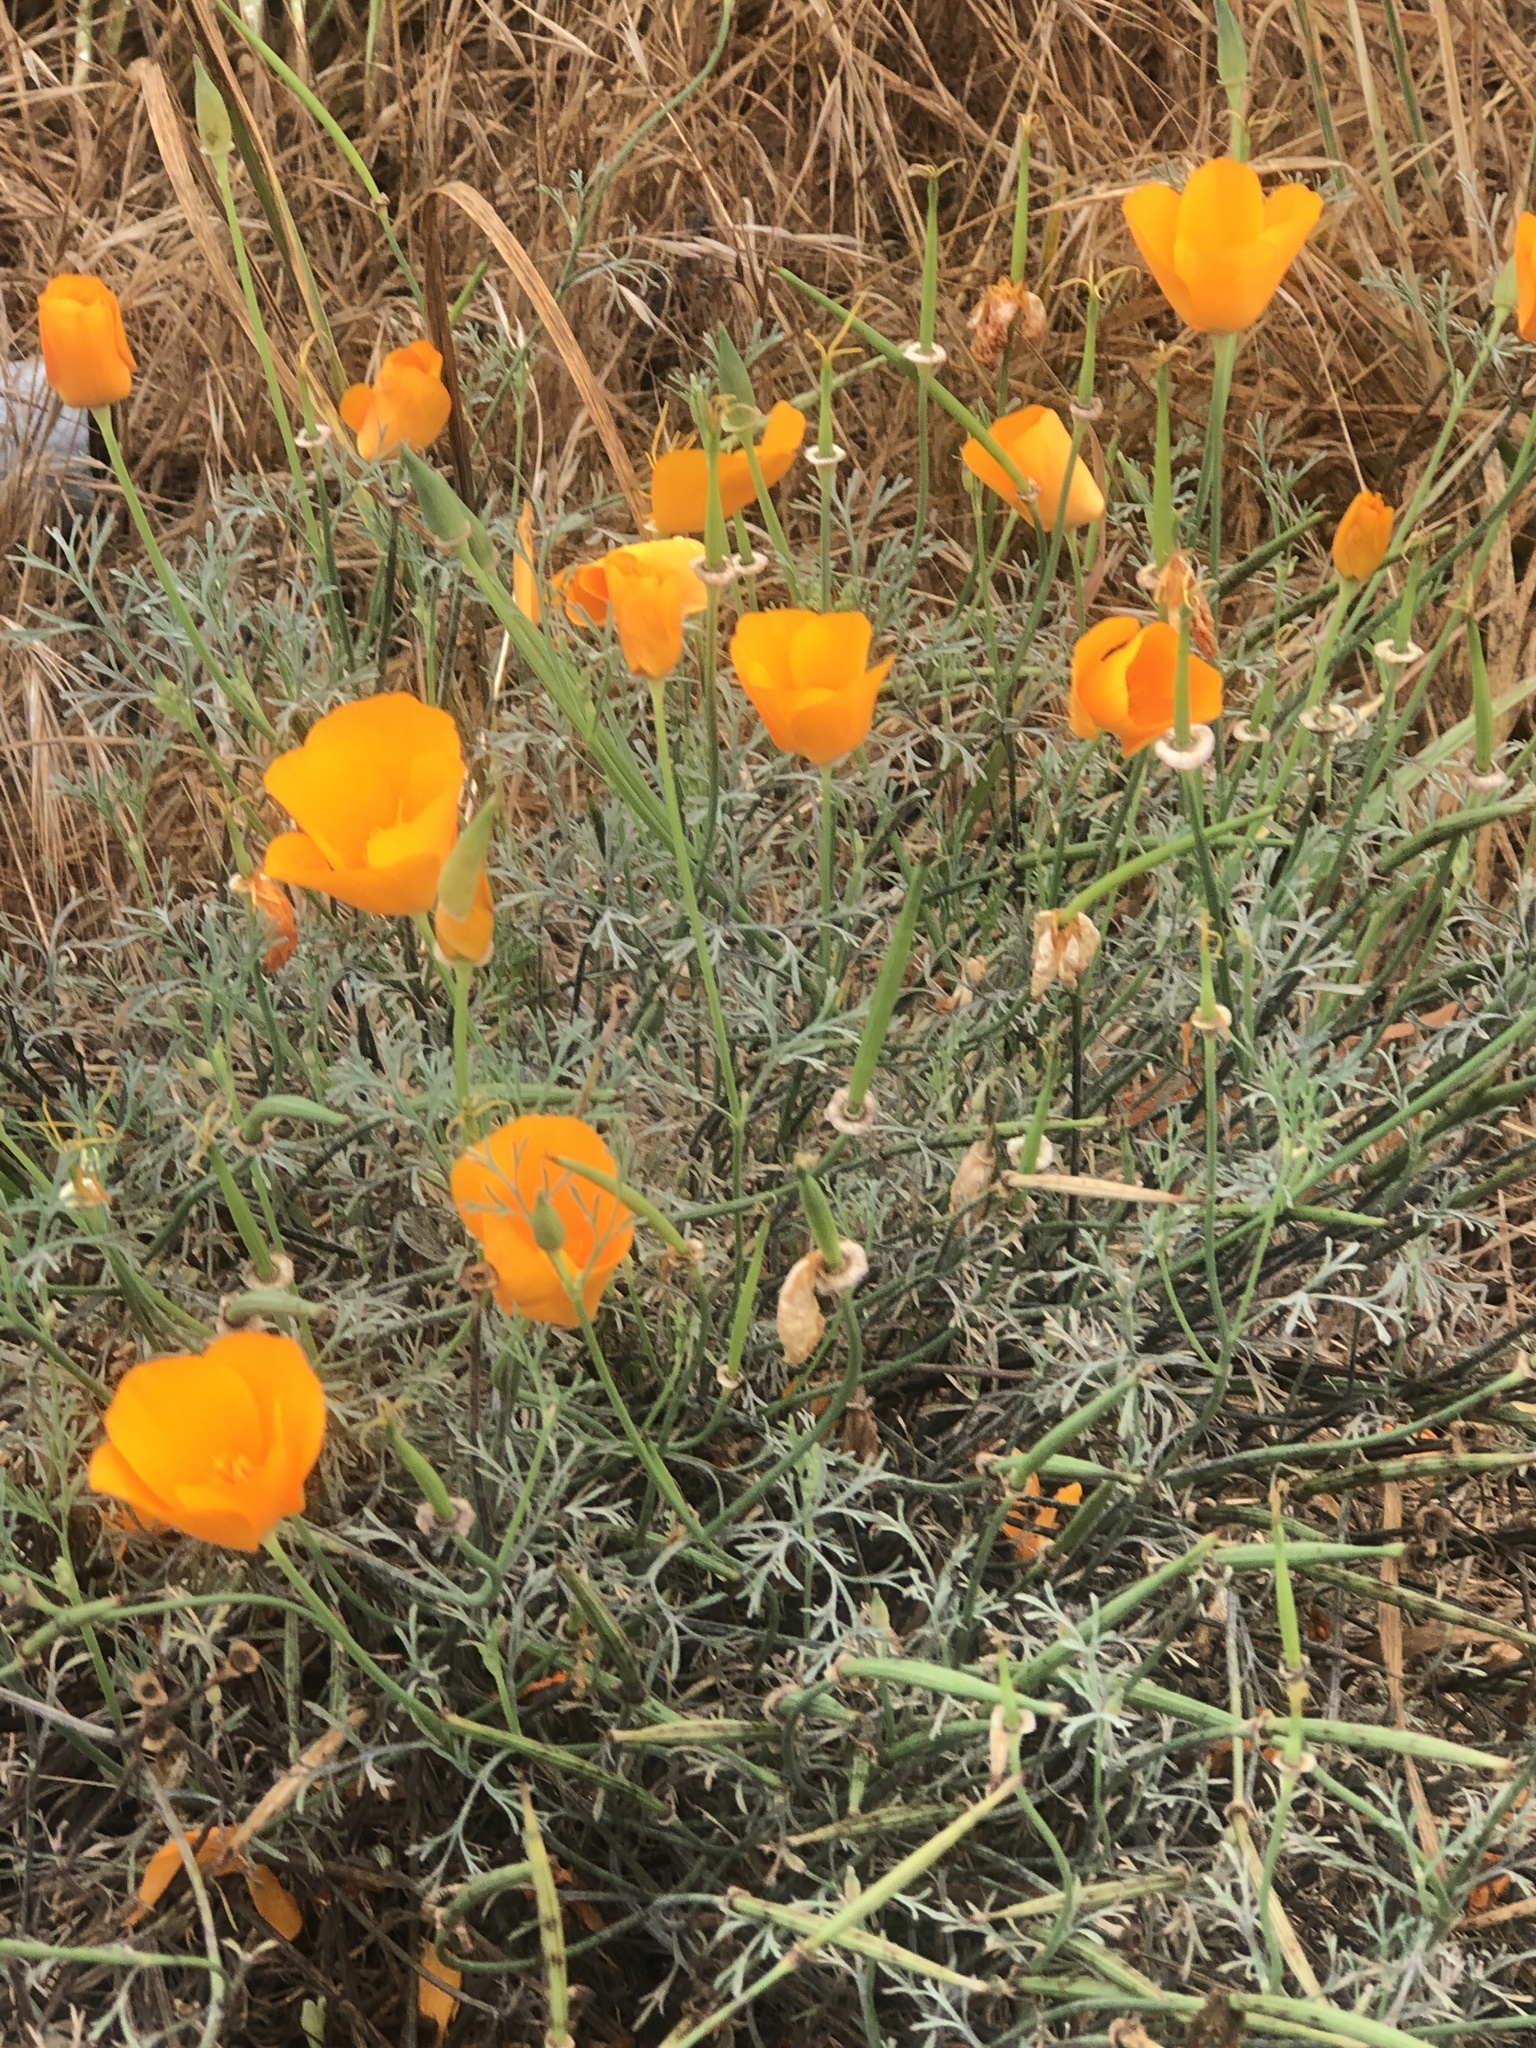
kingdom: Plantae
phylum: Tracheophyta
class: Magnoliopsida
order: Ranunculales
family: Papaveraceae
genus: Eschscholzia
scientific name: Eschscholzia californica
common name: California poppy
